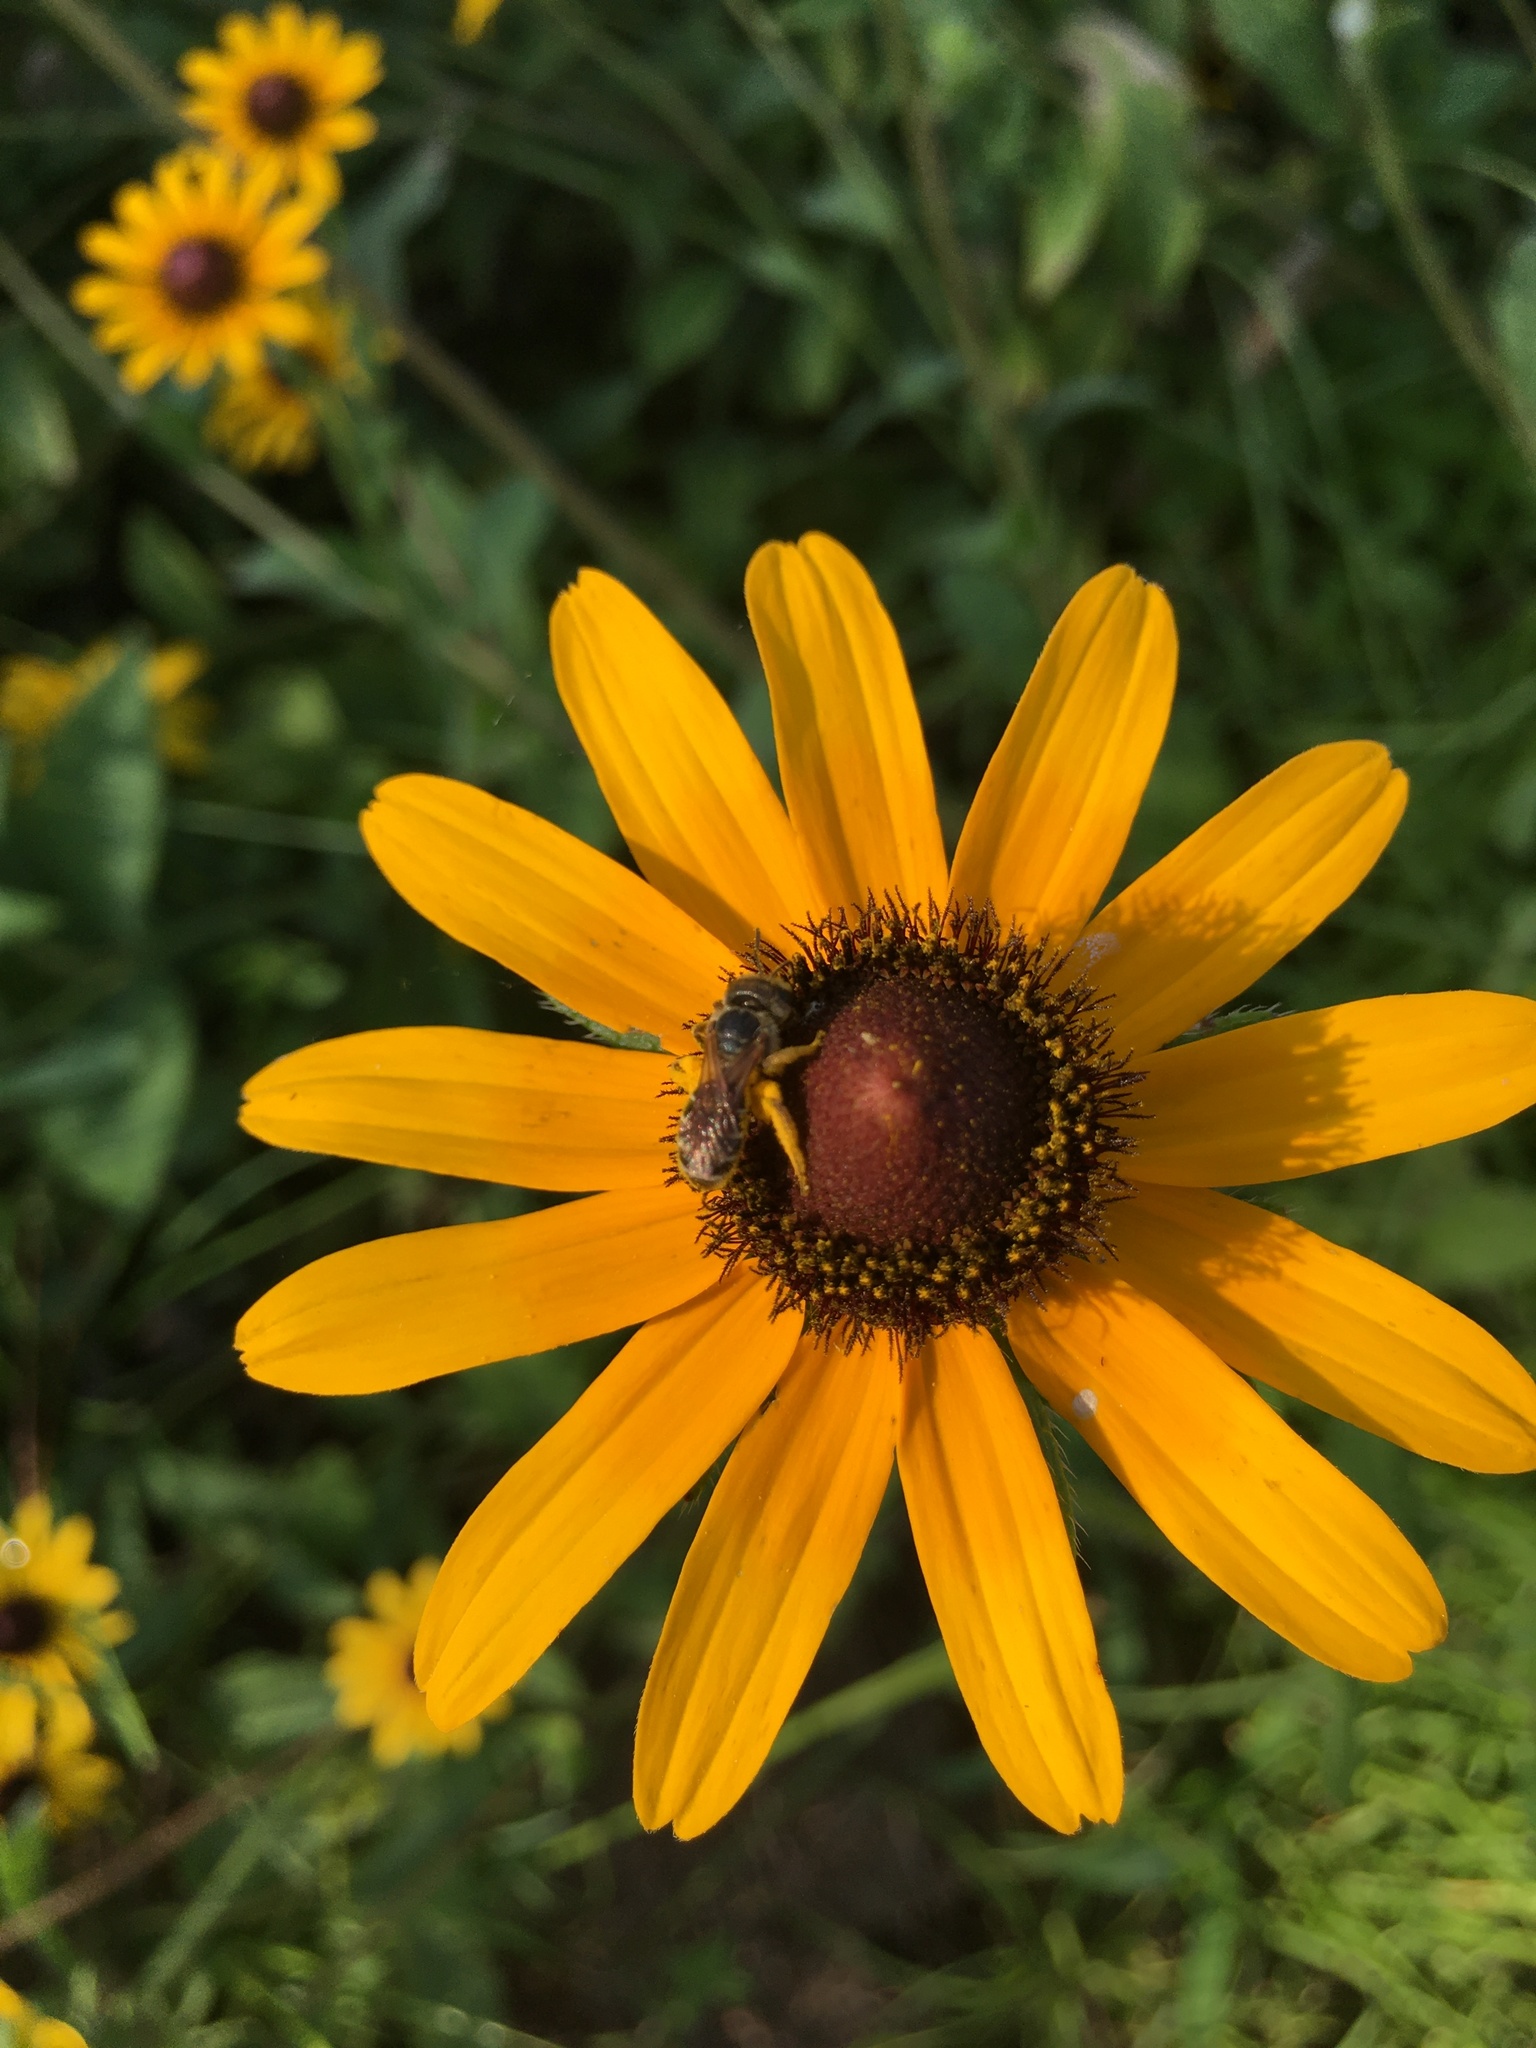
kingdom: Animalia
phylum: Arthropoda
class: Insecta
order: Hymenoptera
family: Halictidae
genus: Halictus
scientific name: Halictus poeyi
